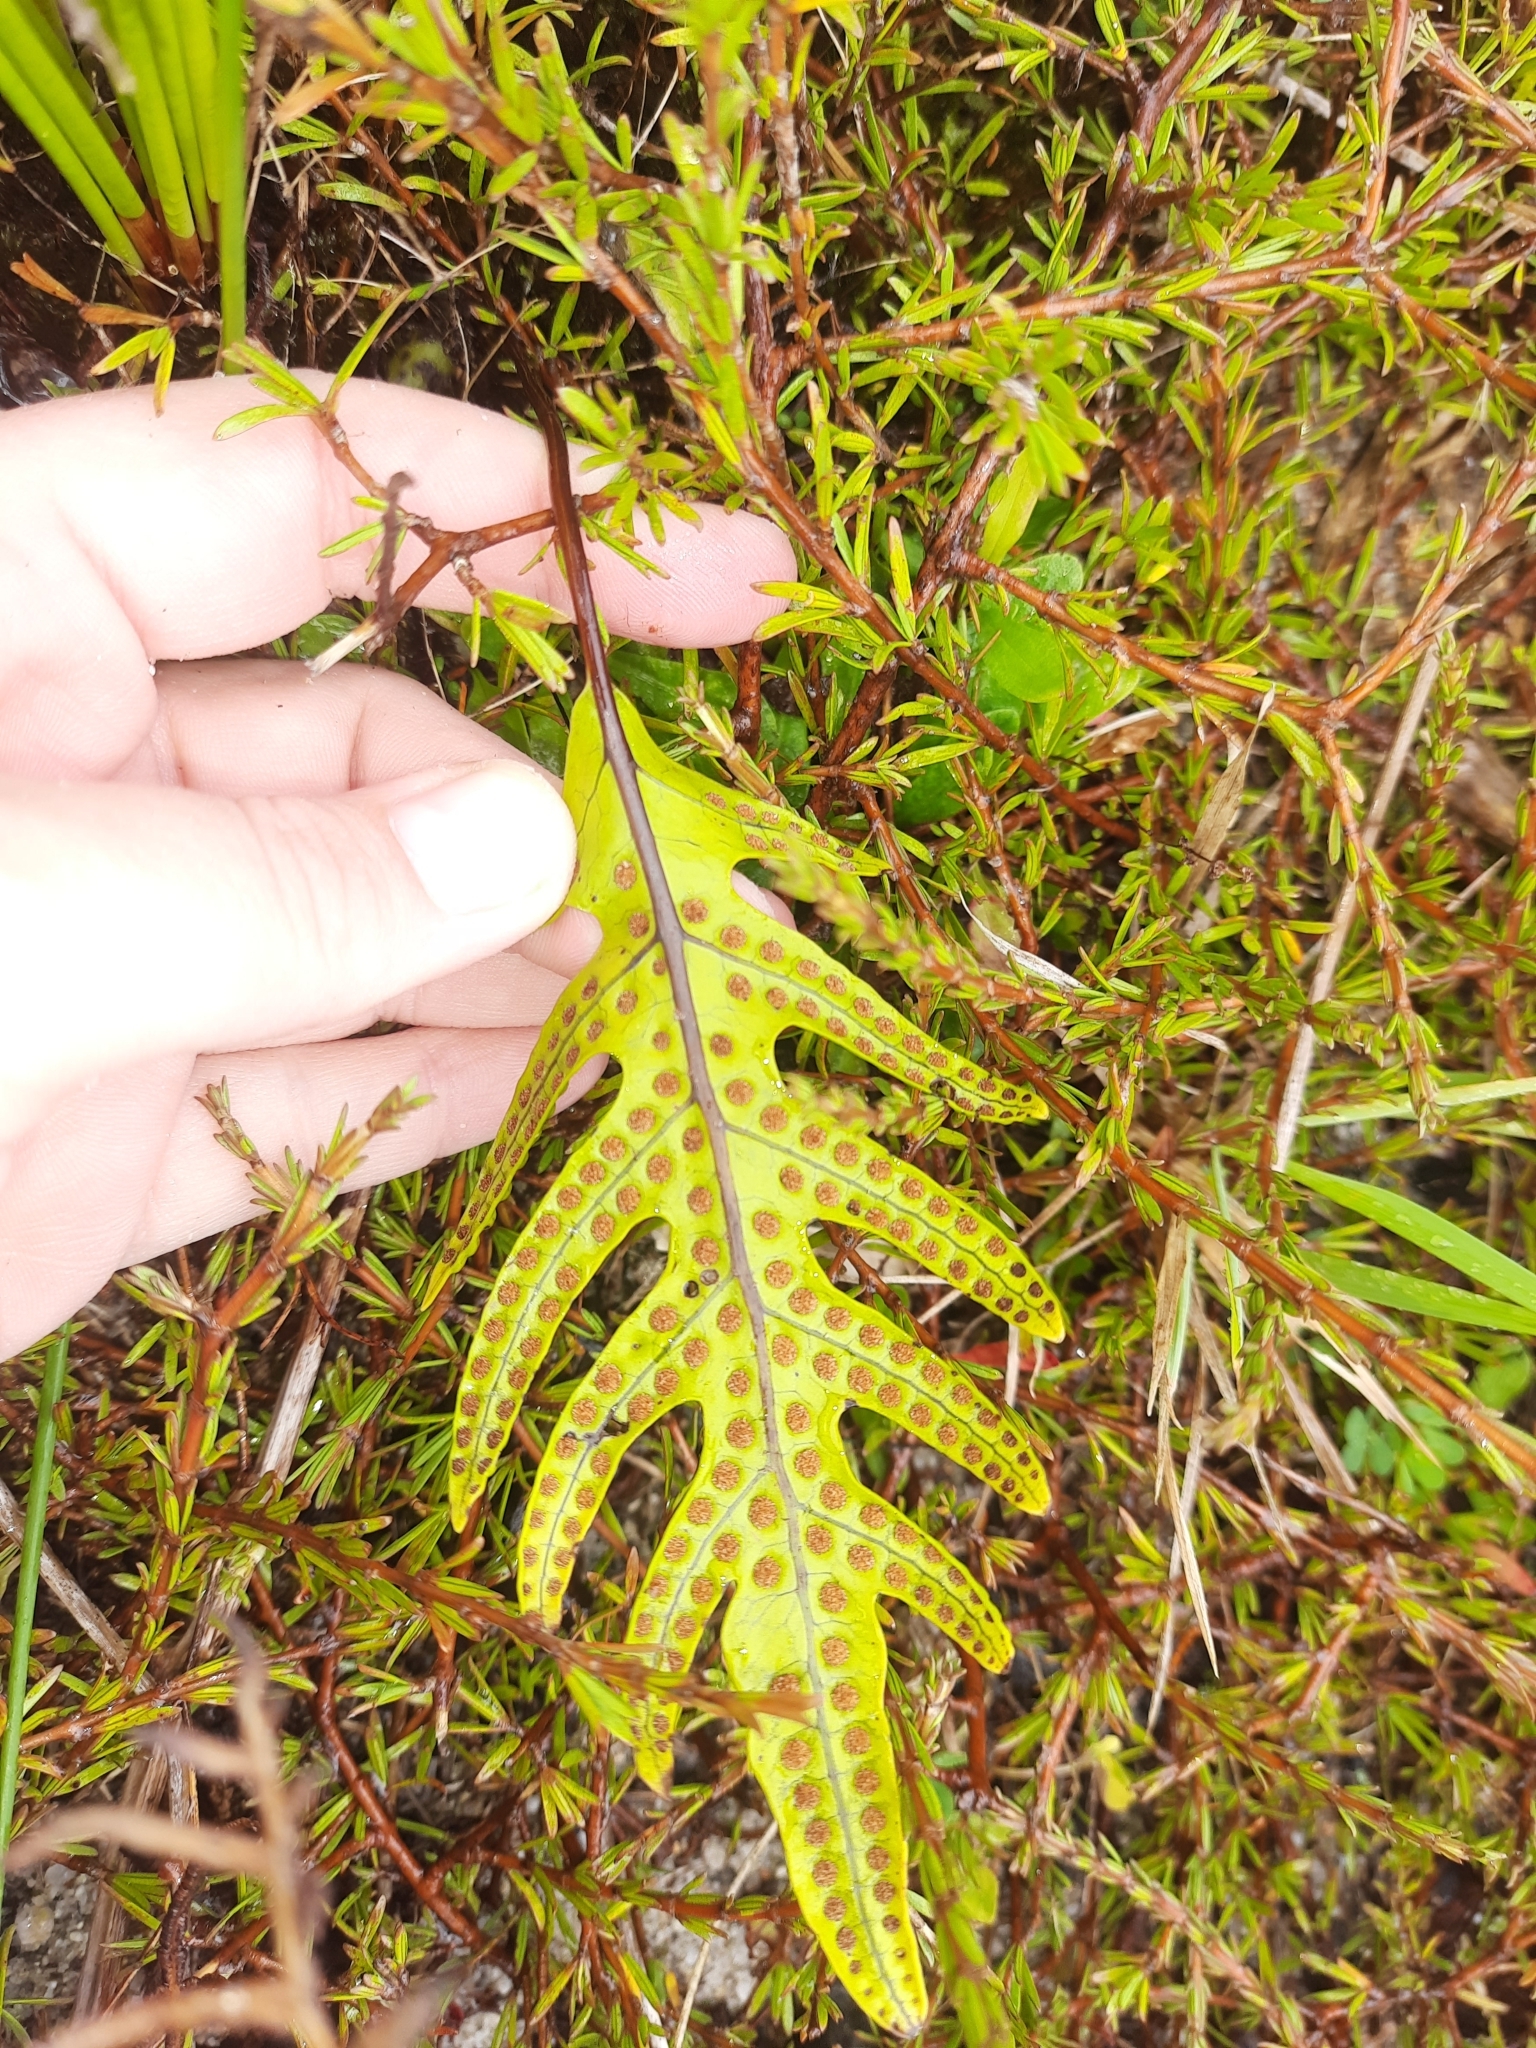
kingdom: Plantae
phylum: Tracheophyta
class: Polypodiopsida
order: Polypodiales
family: Polypodiaceae
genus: Lecanopteris
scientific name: Lecanopteris pustulata
